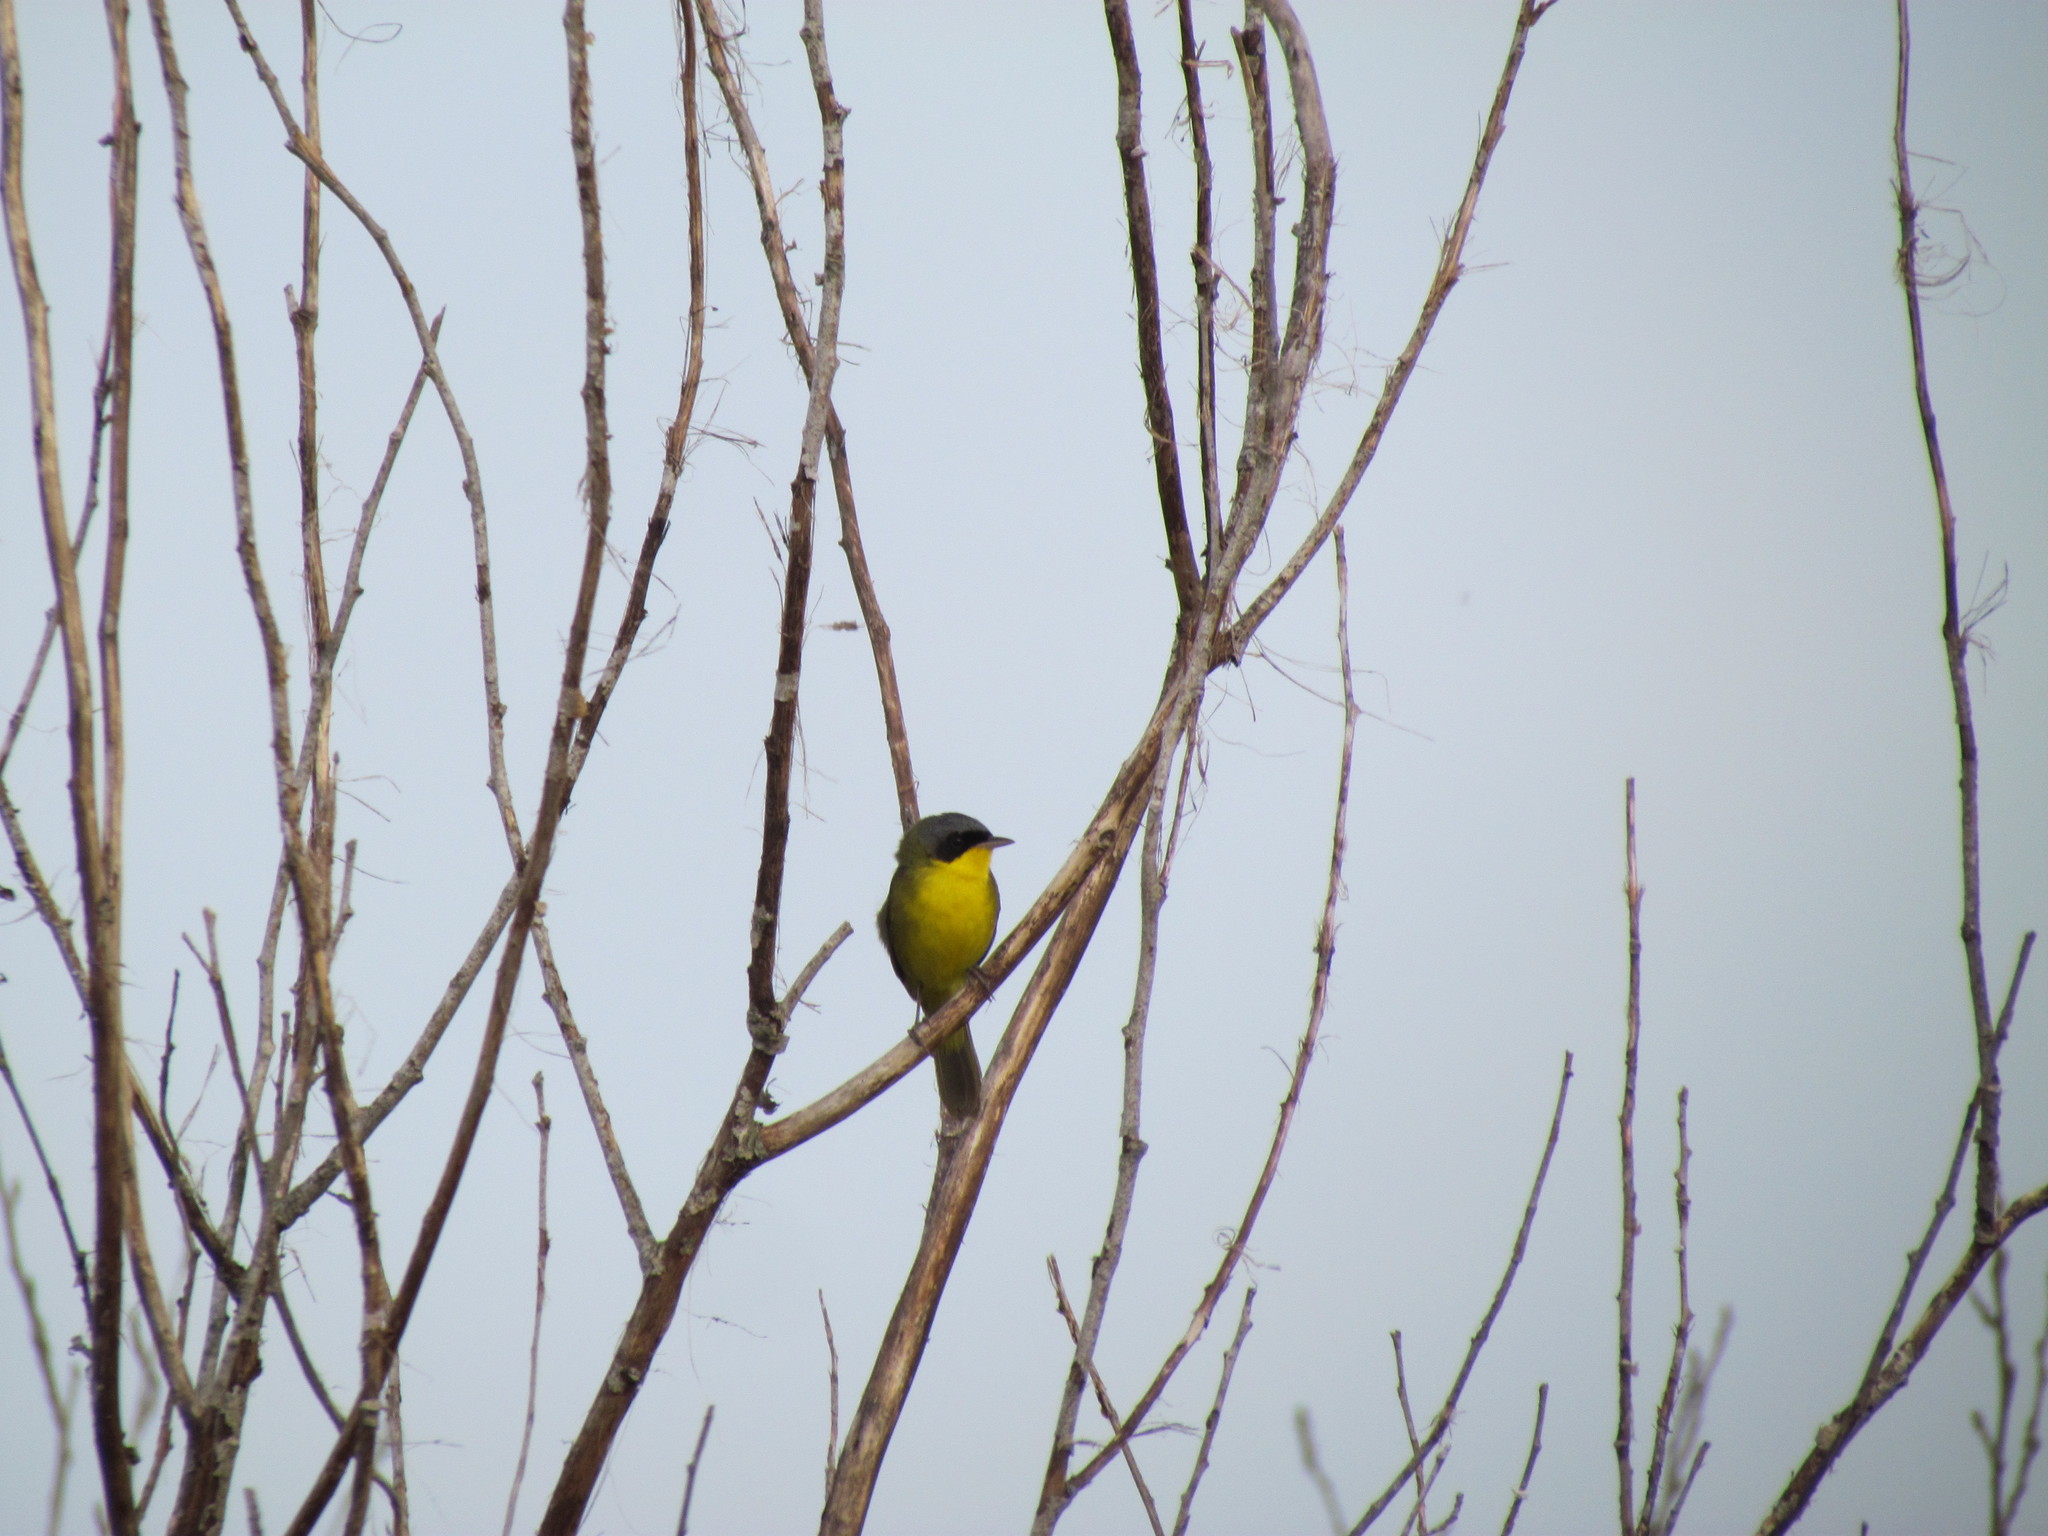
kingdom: Animalia
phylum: Chordata
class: Aves
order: Passeriformes
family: Parulidae
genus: Geothlypis
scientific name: Geothlypis velata
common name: Southern yellowthroat
